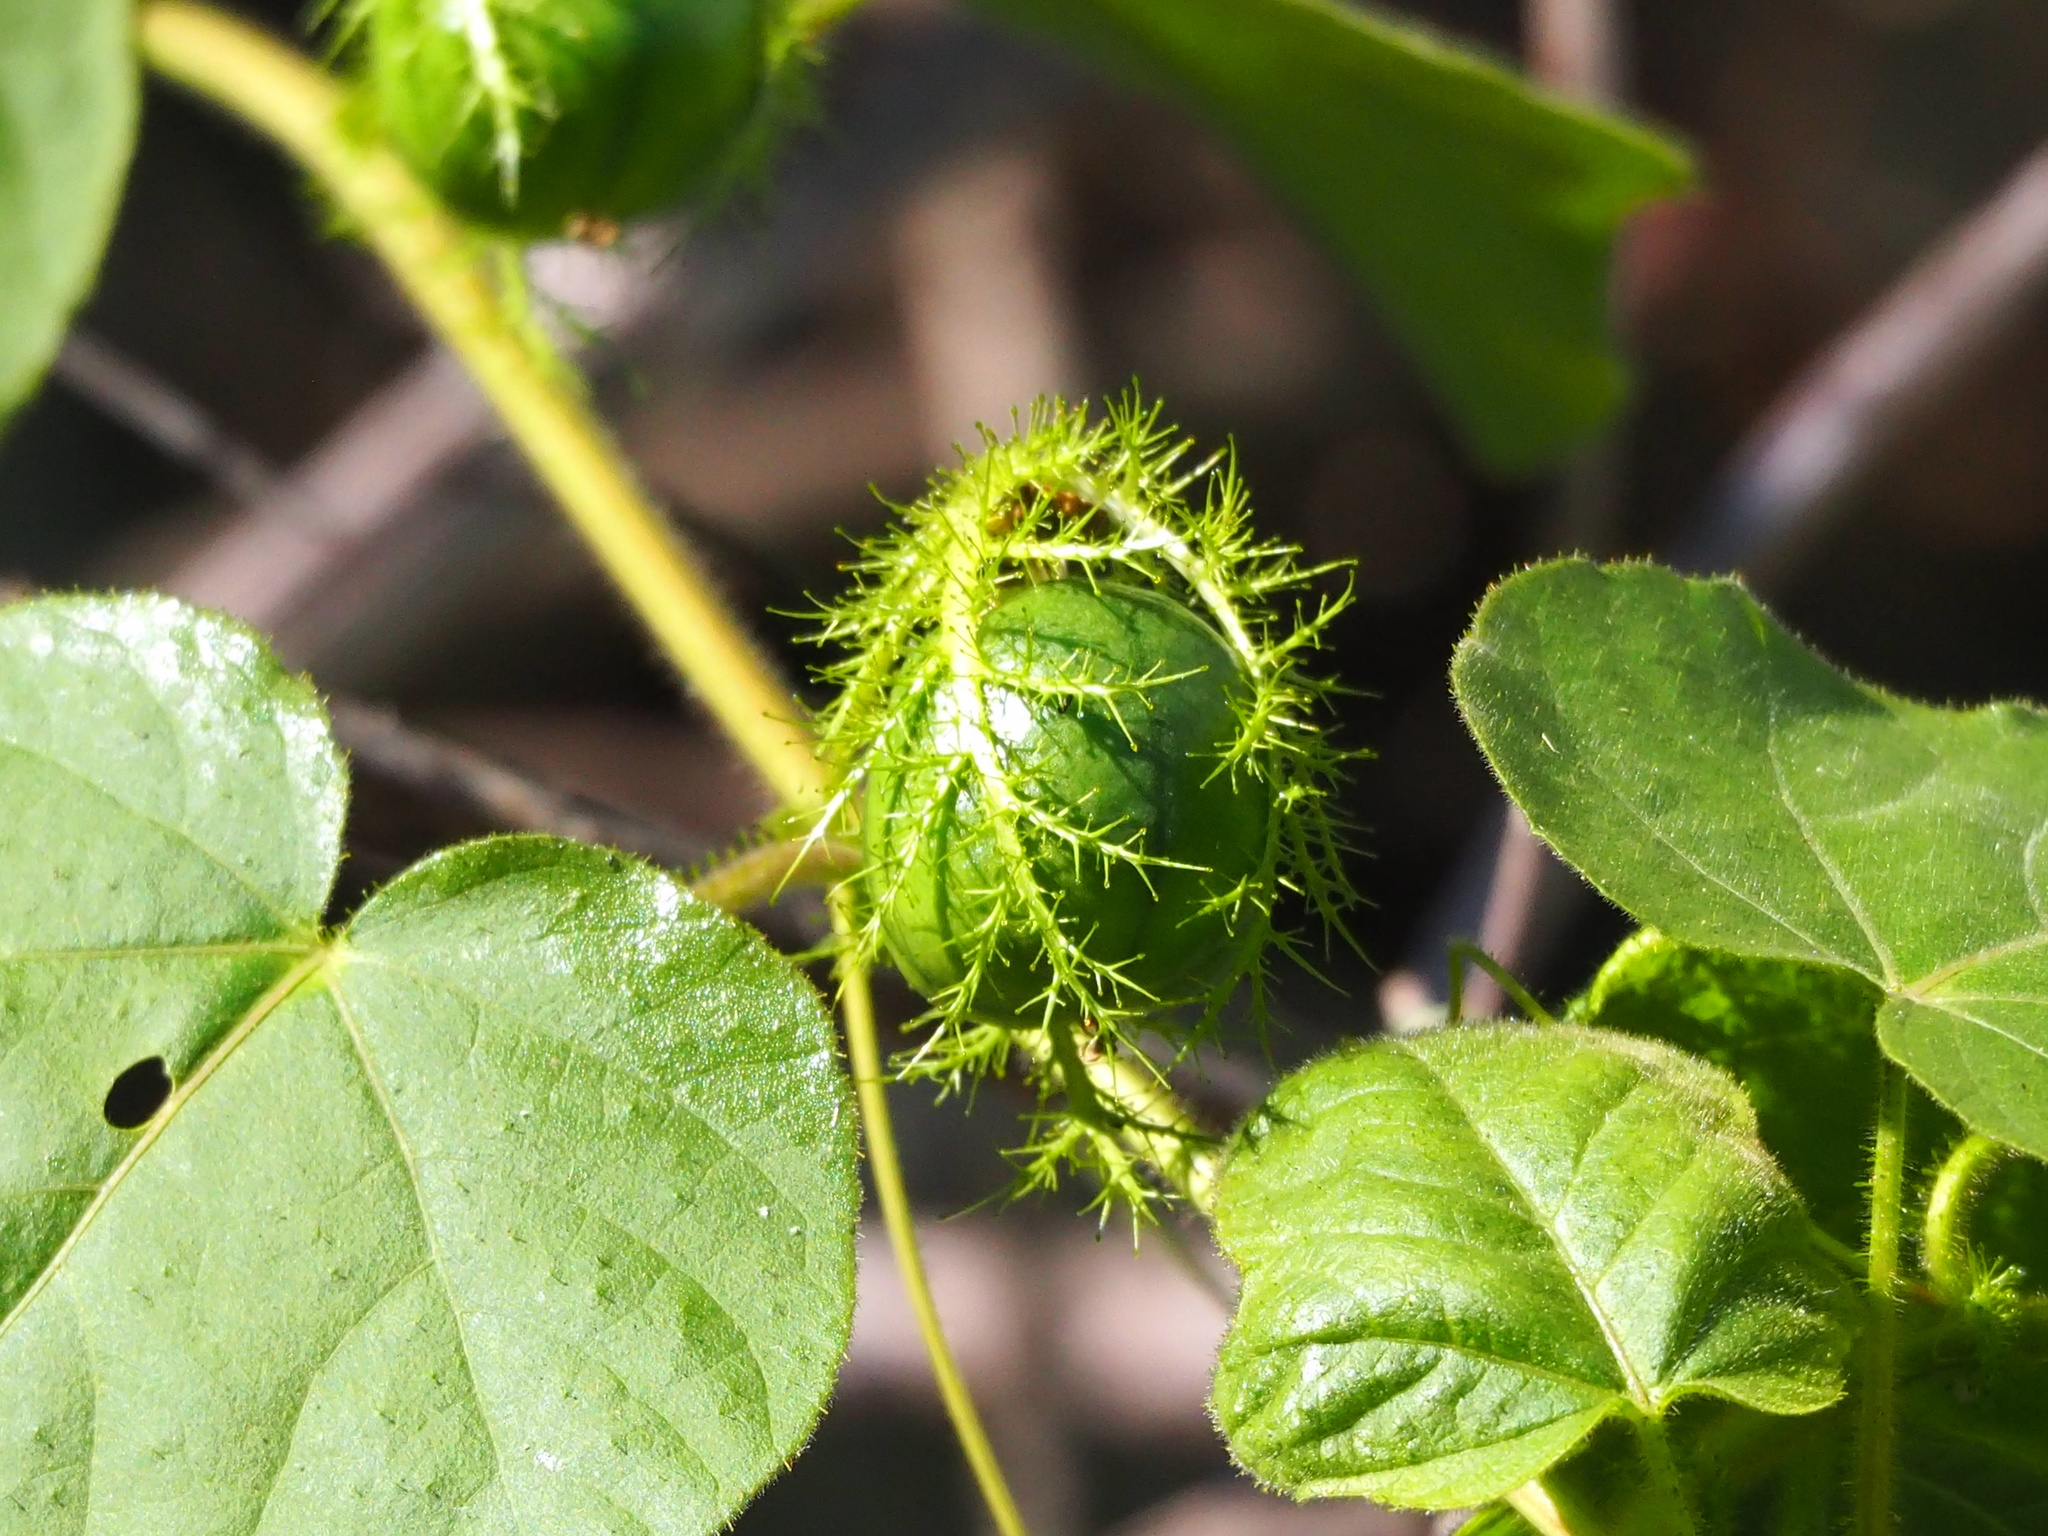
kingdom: Plantae
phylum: Tracheophyta
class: Magnoliopsida
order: Malpighiales
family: Passifloraceae
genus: Passiflora
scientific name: Passiflora vesicaria
